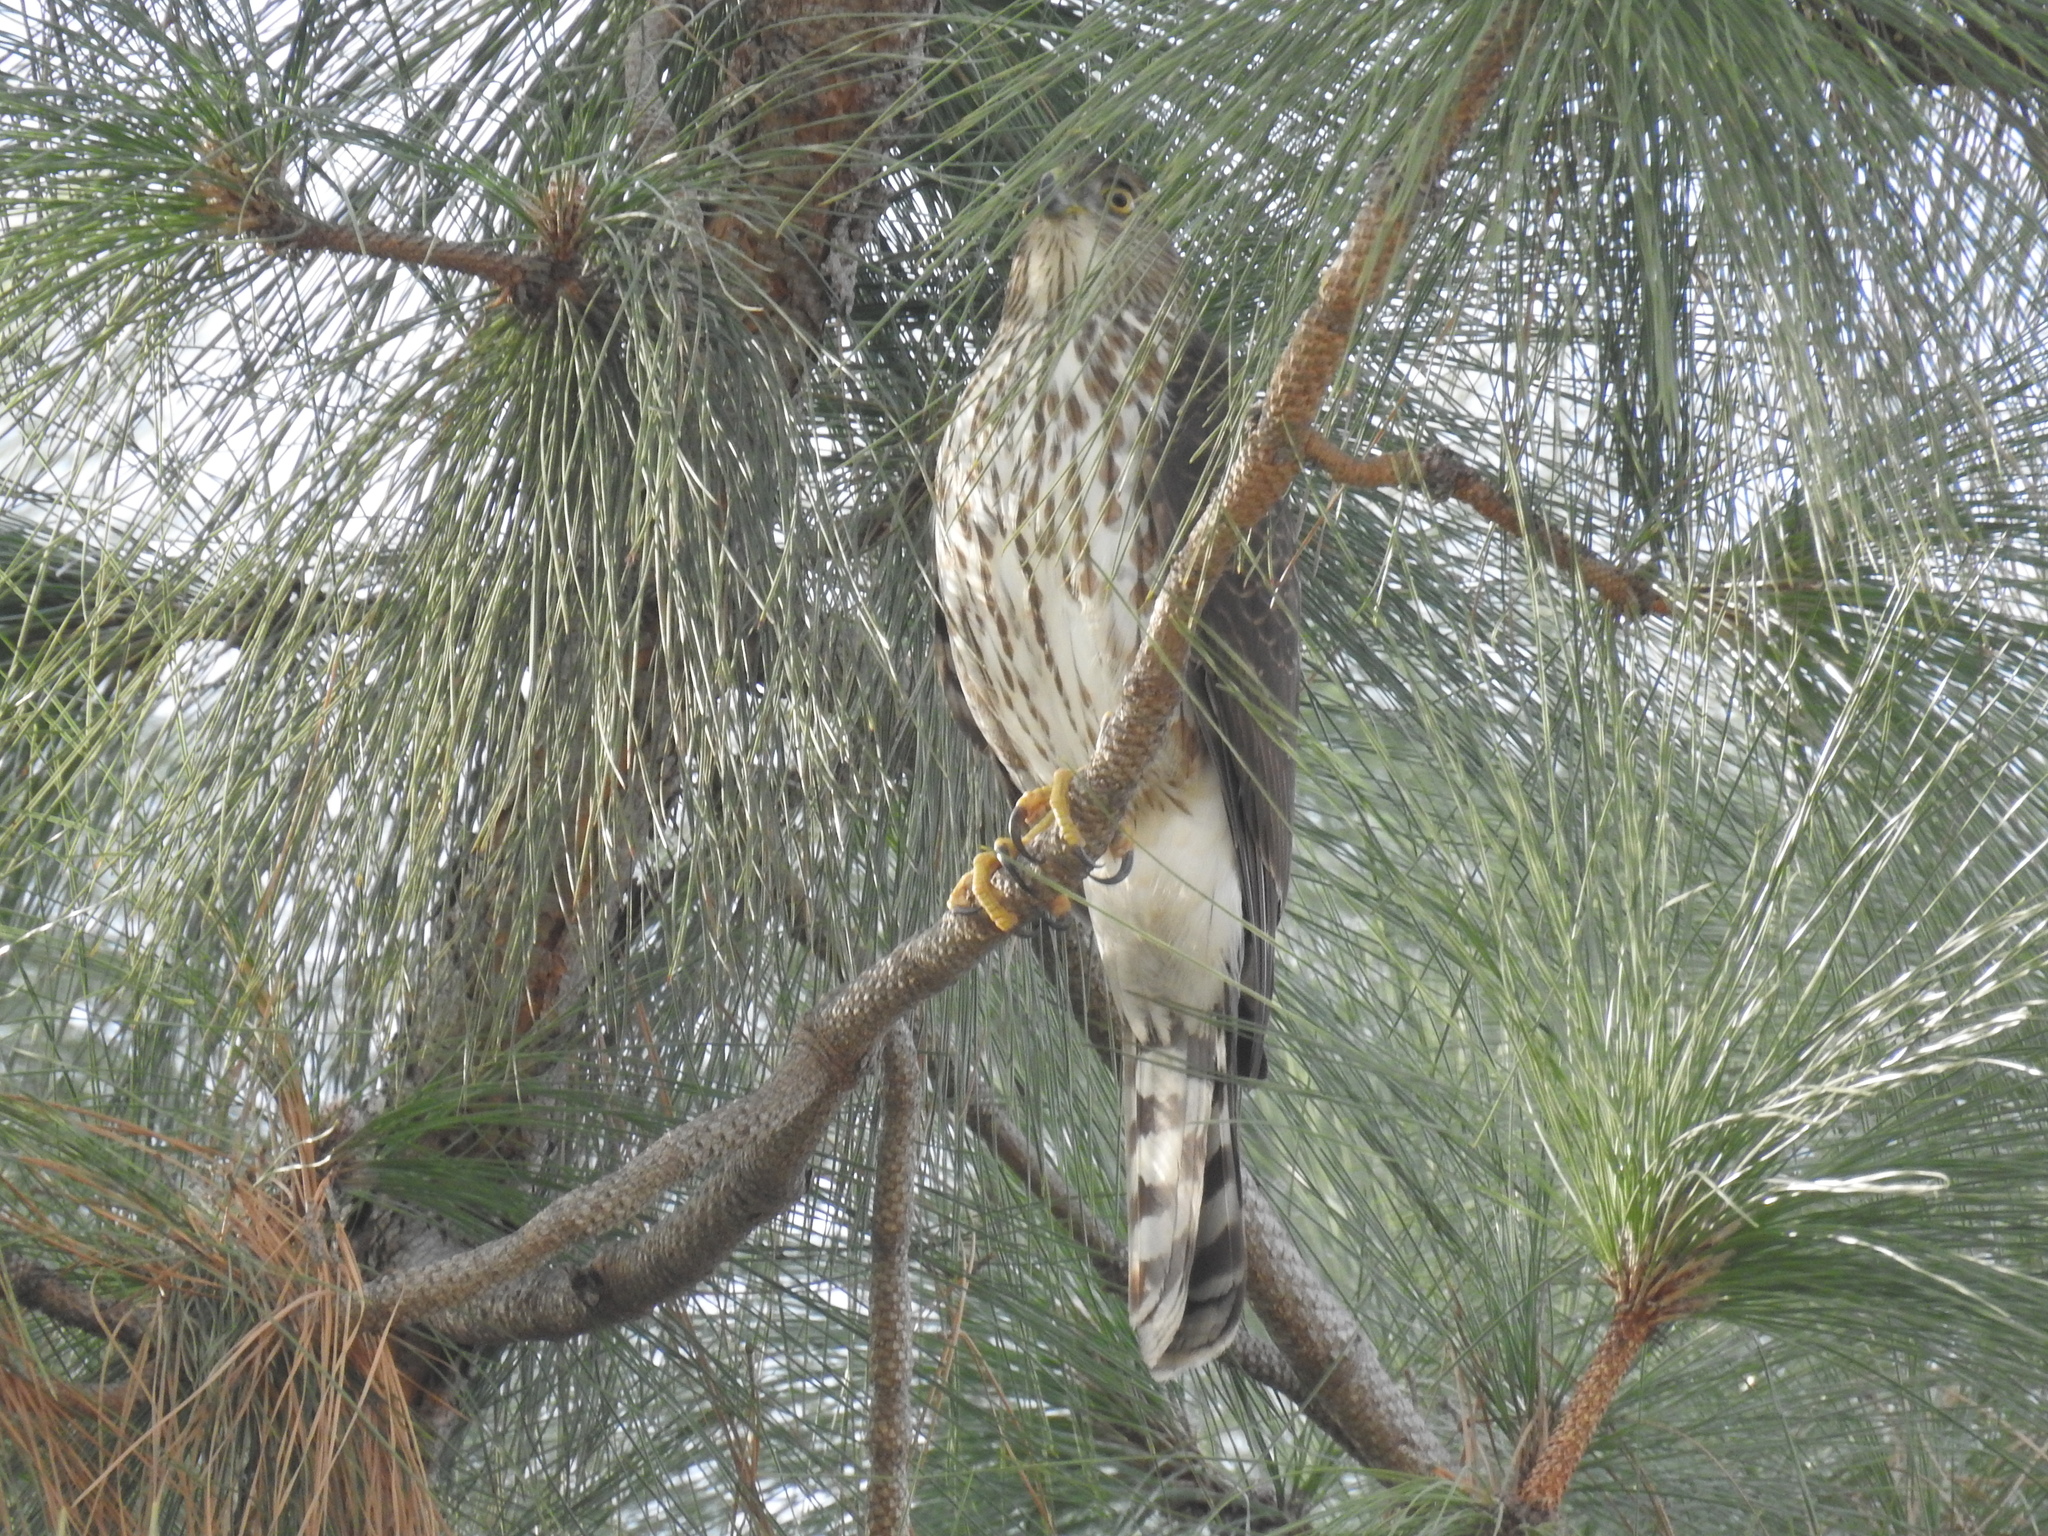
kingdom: Animalia
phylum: Chordata
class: Aves
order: Accipitriformes
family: Accipitridae
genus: Accipiter
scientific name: Accipiter cooperii
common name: Cooper's hawk
